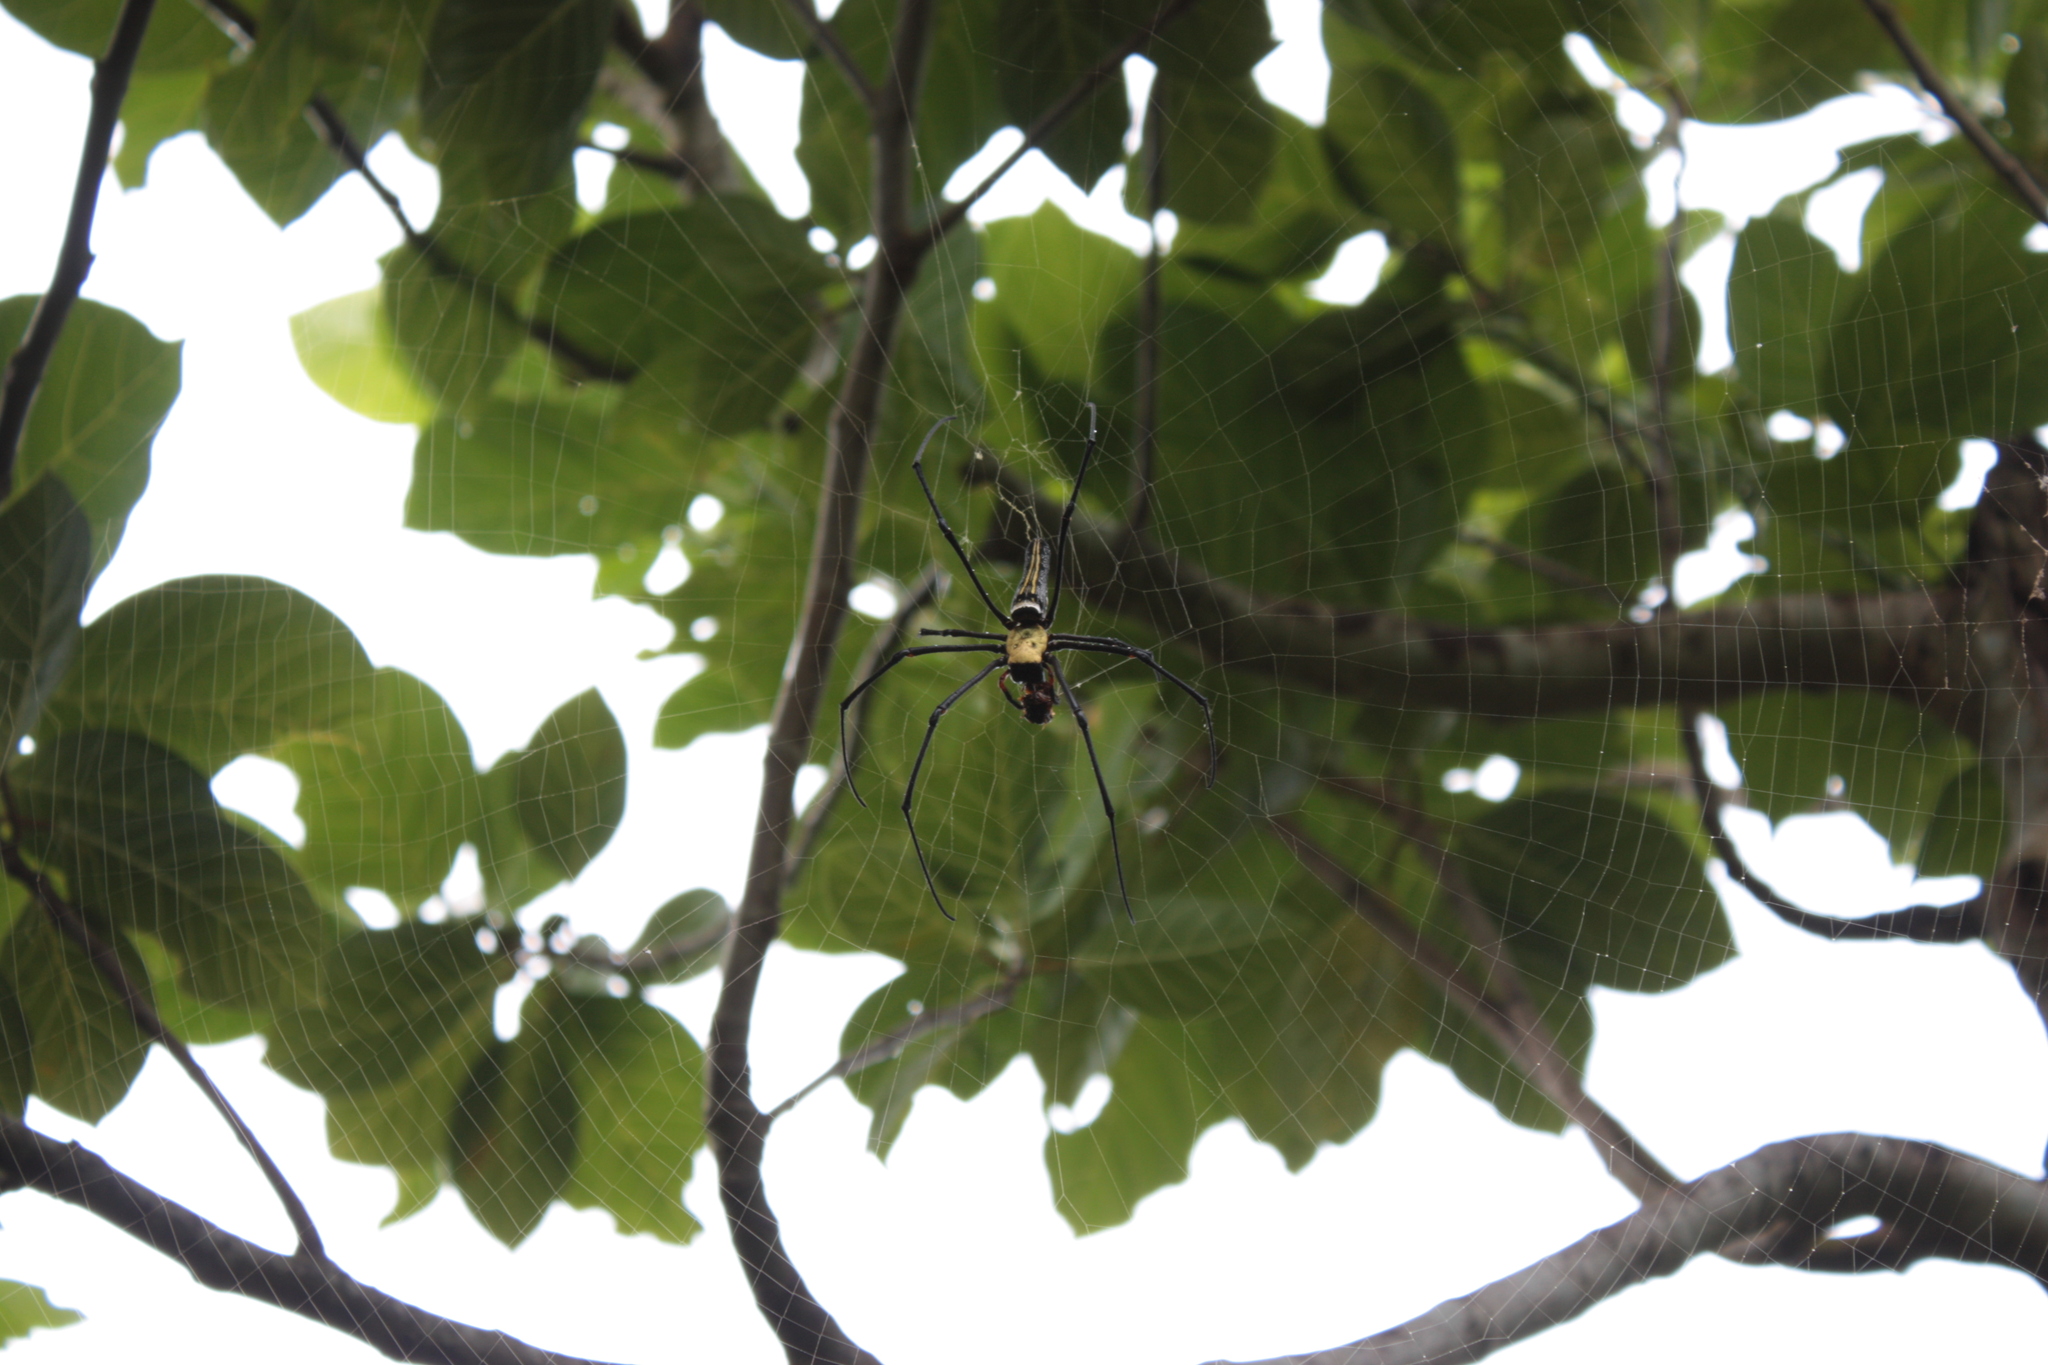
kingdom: Animalia
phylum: Arthropoda
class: Arachnida
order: Araneae
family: Araneidae
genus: Nephila
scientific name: Nephila pilipes
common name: Giant golden orb weaver
